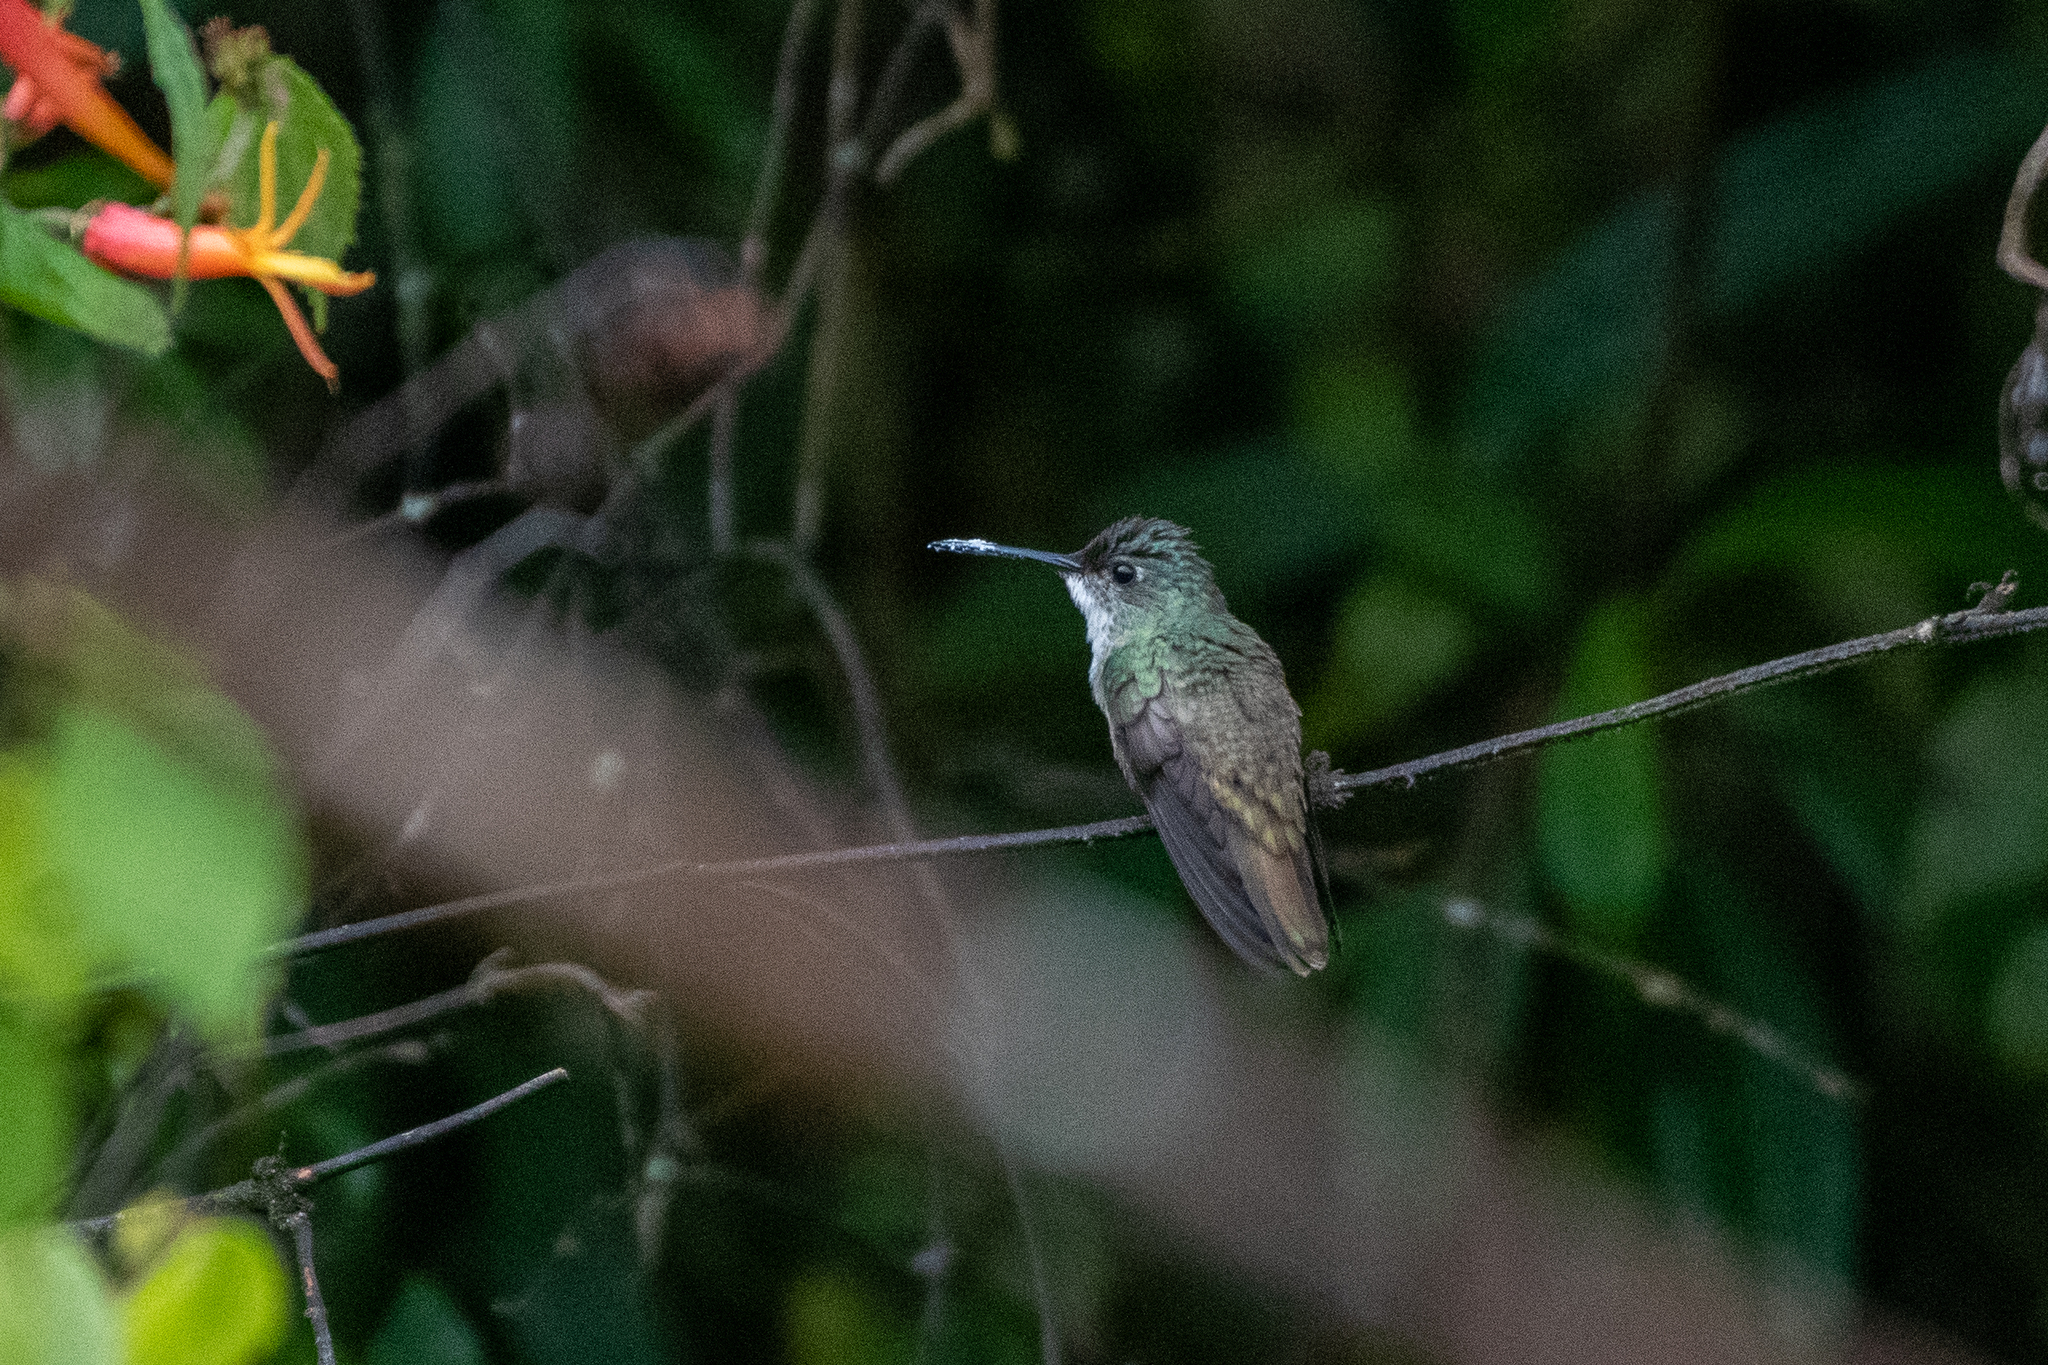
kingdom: Animalia
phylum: Chordata
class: Aves
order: Apodiformes
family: Trochilidae
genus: Saucerottia
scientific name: Saucerottia cyanocephala
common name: Azure-crowned hummingbird
